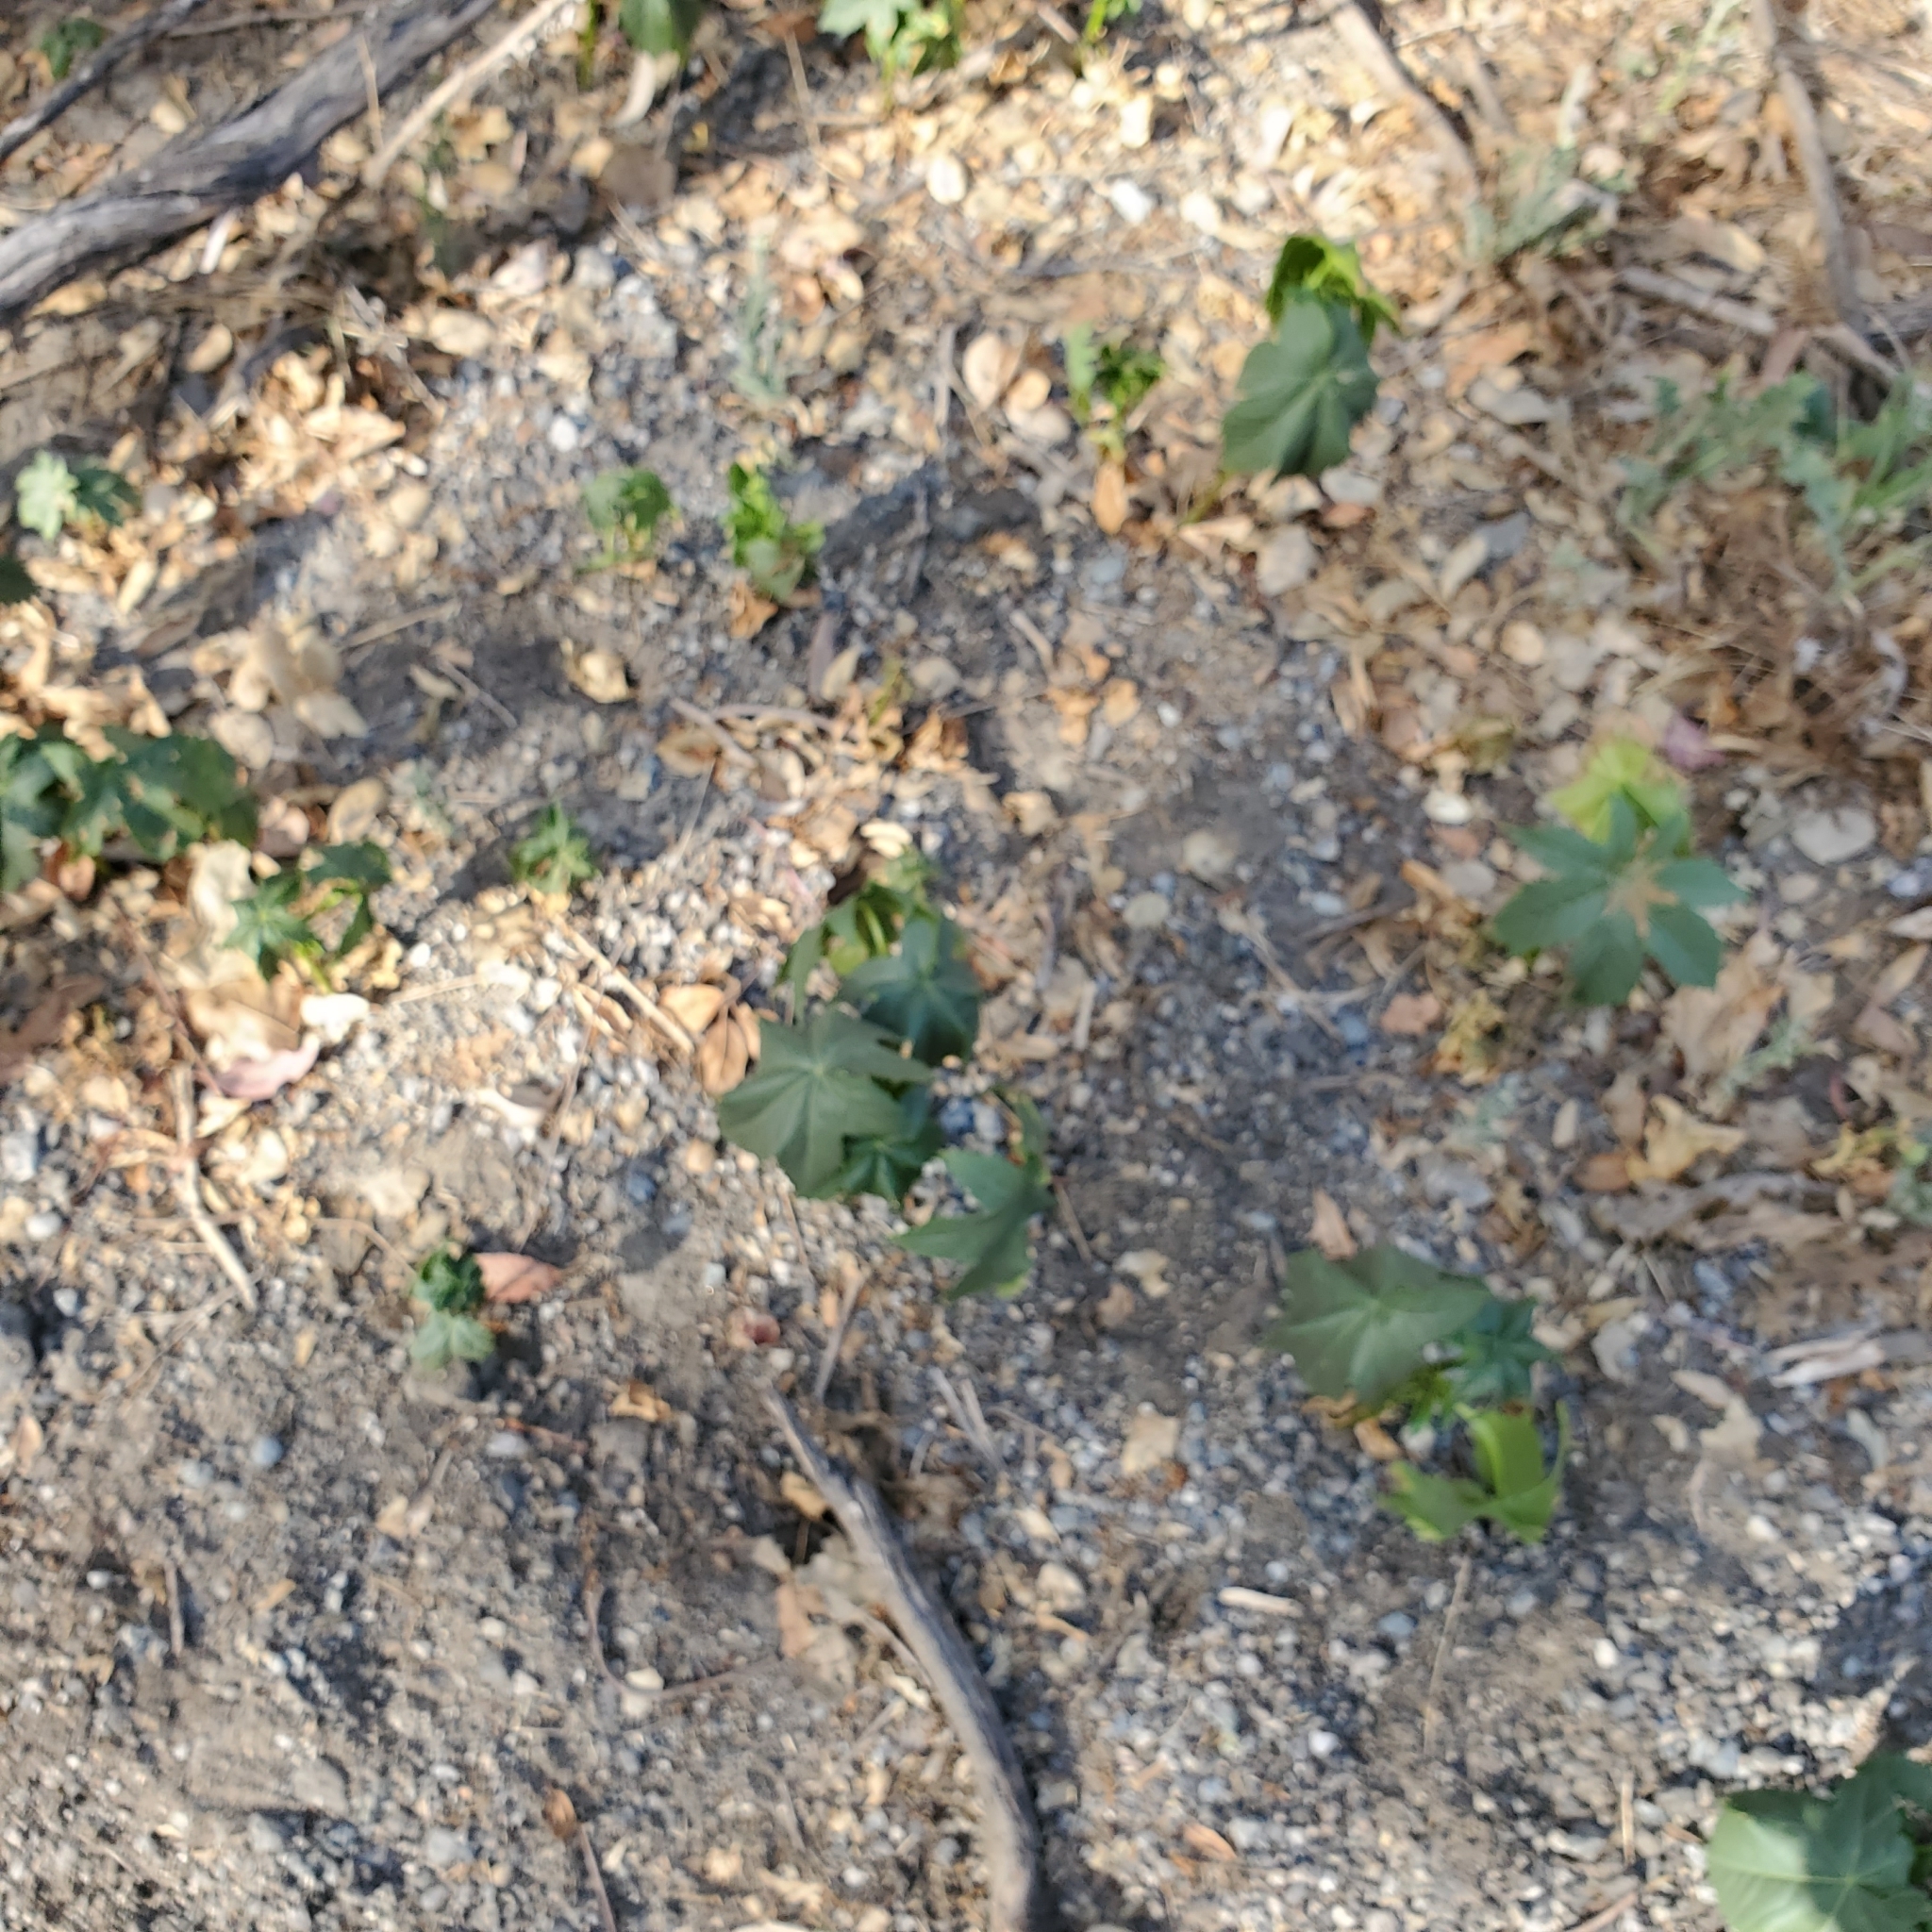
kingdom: Plantae
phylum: Tracheophyta
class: Magnoliopsida
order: Malpighiales
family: Euphorbiaceae
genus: Ricinus
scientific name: Ricinus communis
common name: Castor-oil-plant
